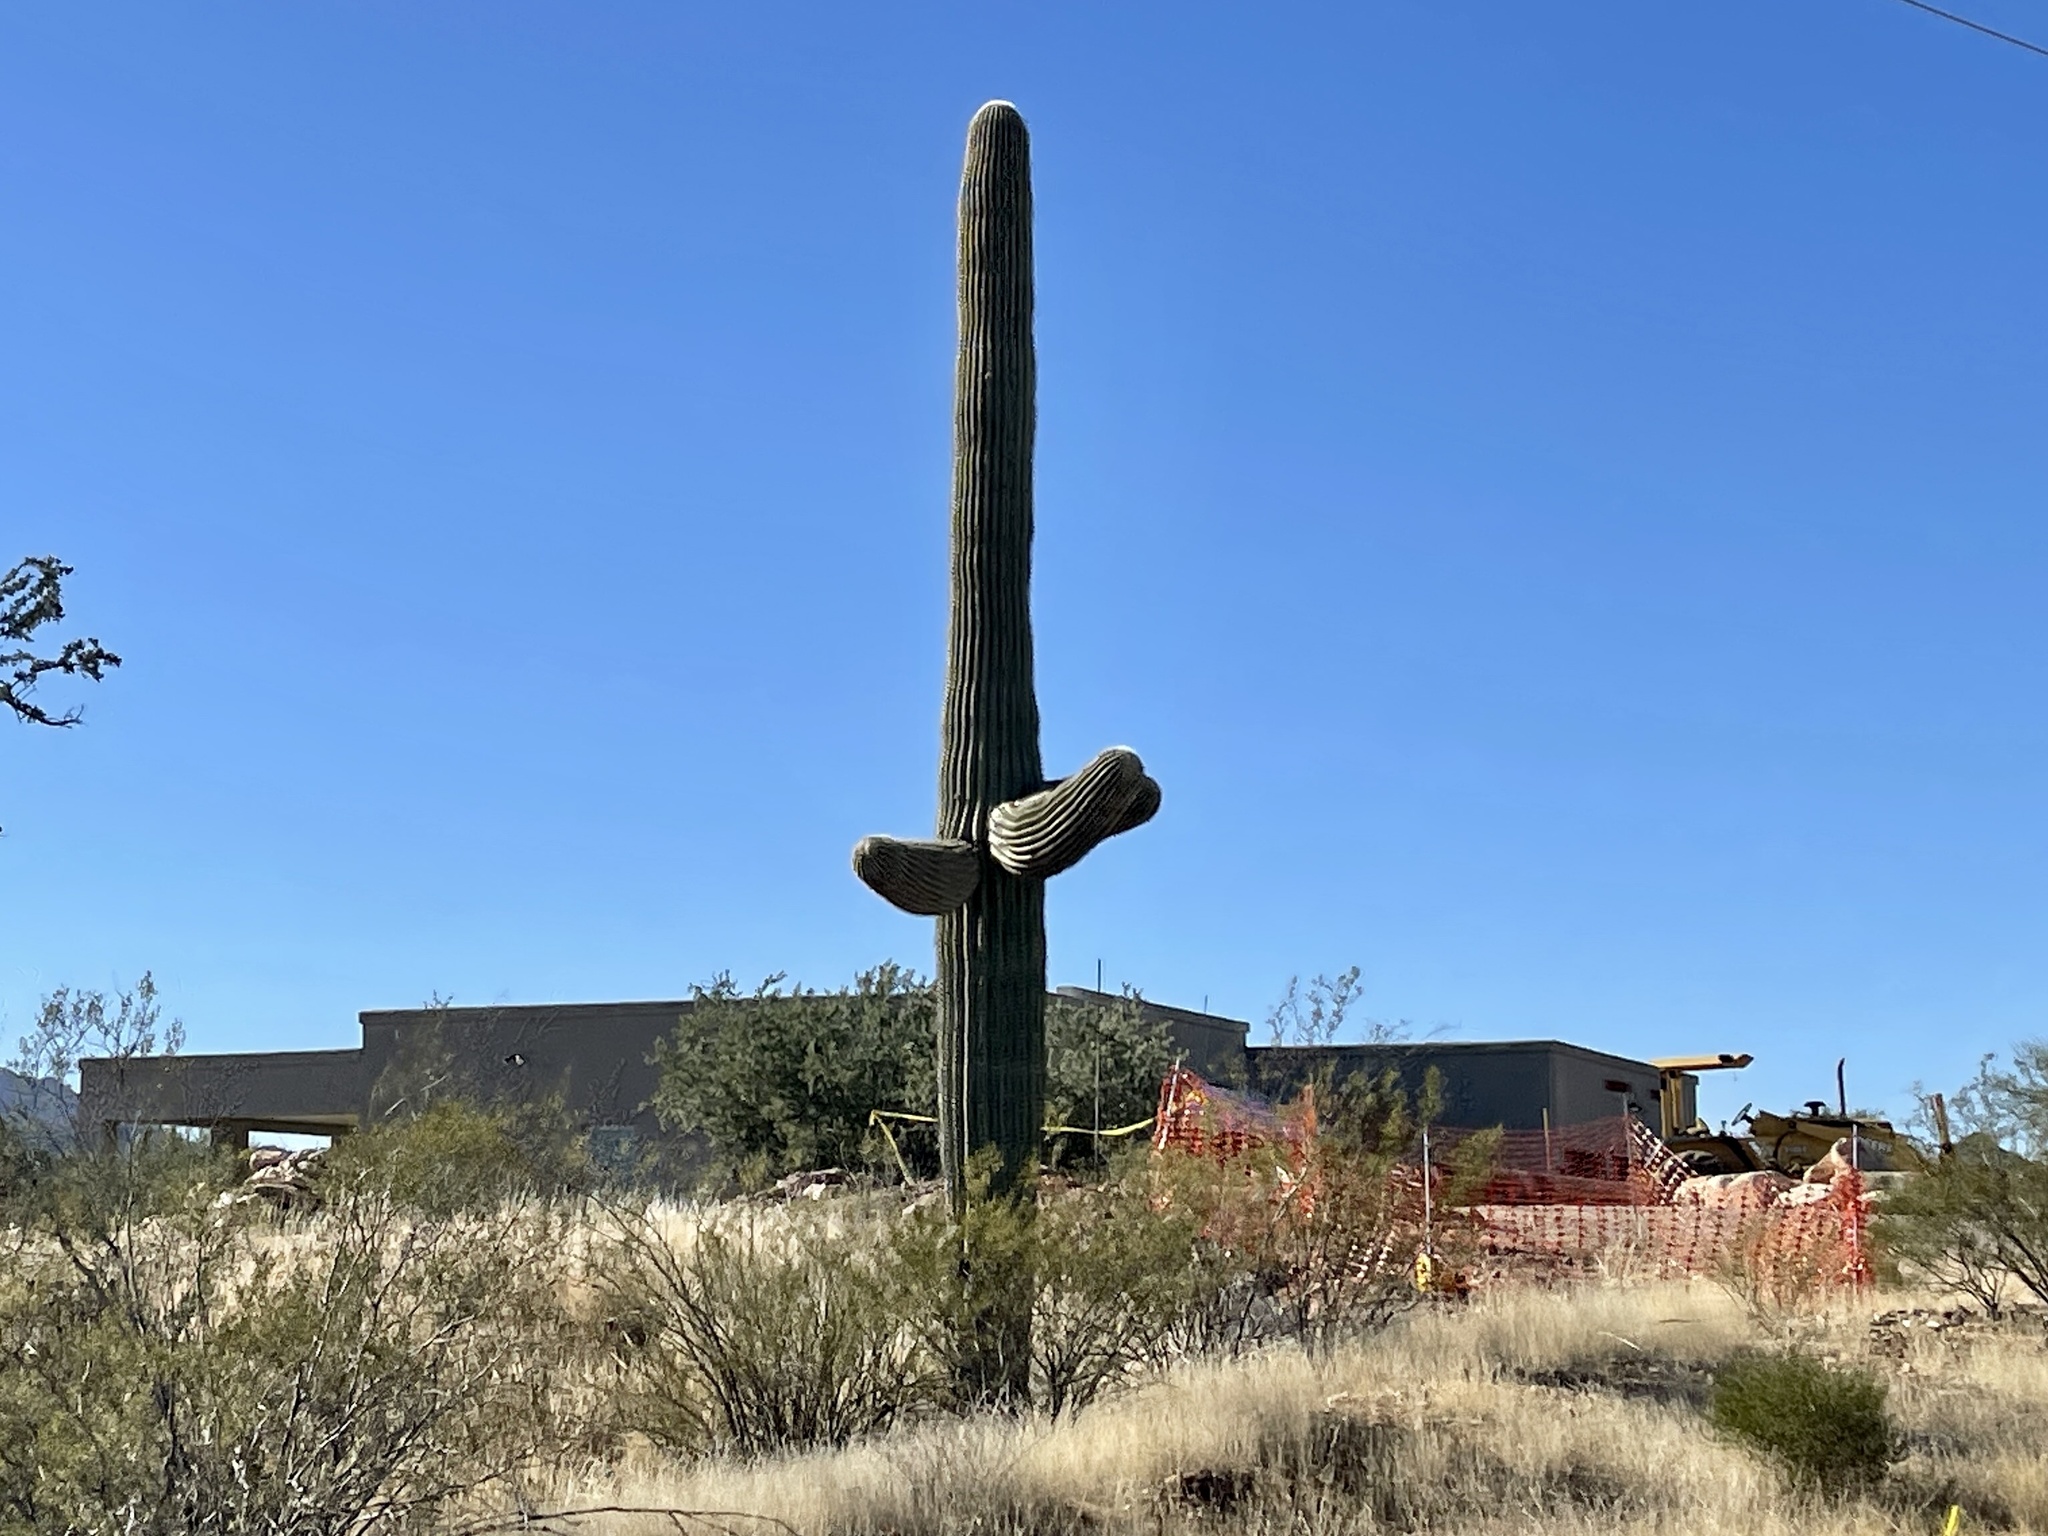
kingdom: Plantae
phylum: Tracheophyta
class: Magnoliopsida
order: Caryophyllales
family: Cactaceae
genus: Carnegiea
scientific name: Carnegiea gigantea
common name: Saguaro
